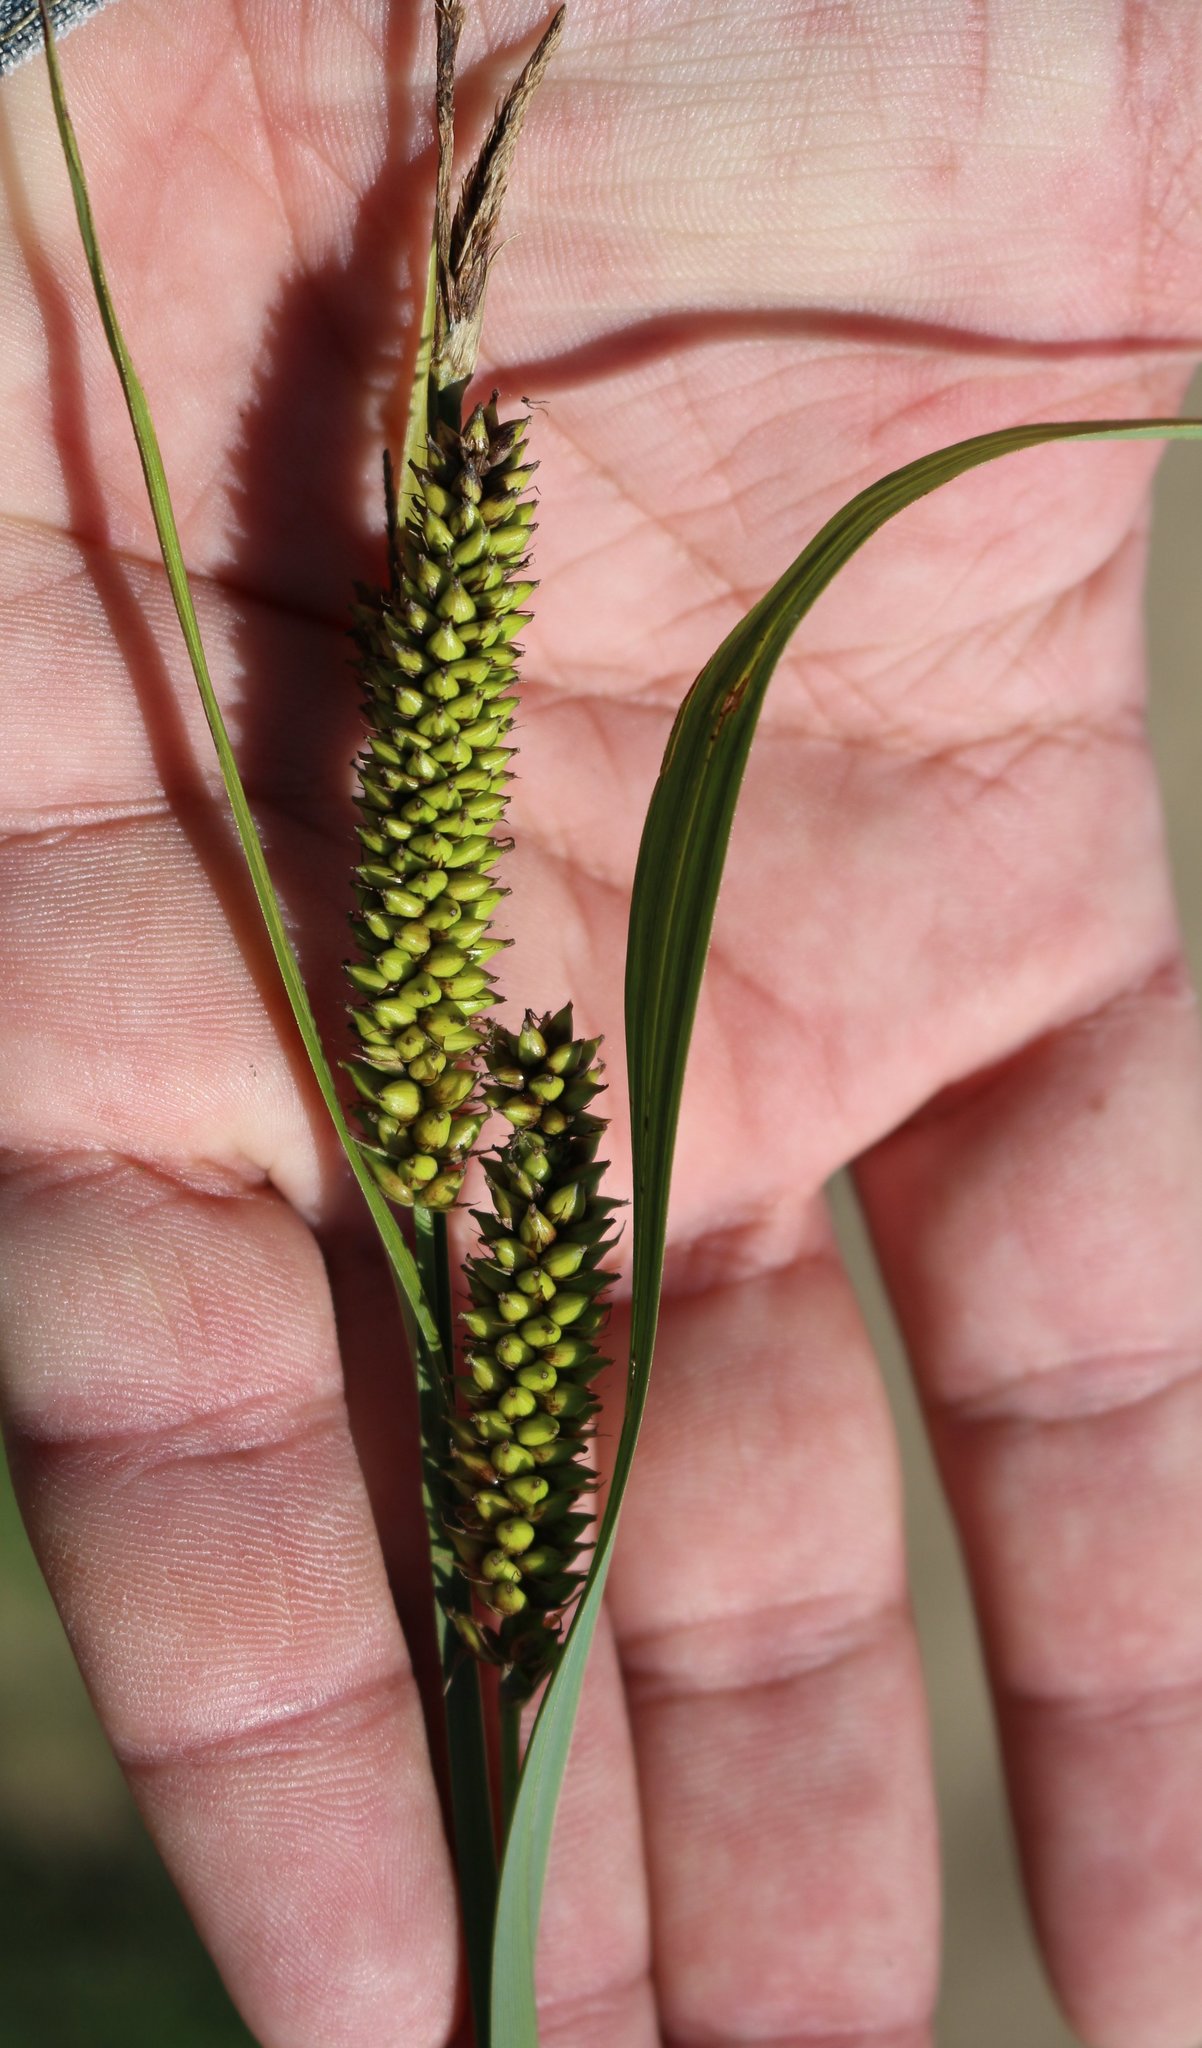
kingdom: Plantae
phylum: Tracheophyta
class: Liliopsida
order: Poales
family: Cyperaceae
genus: Carex
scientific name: Carex riparia
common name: Greater pond-sedge
